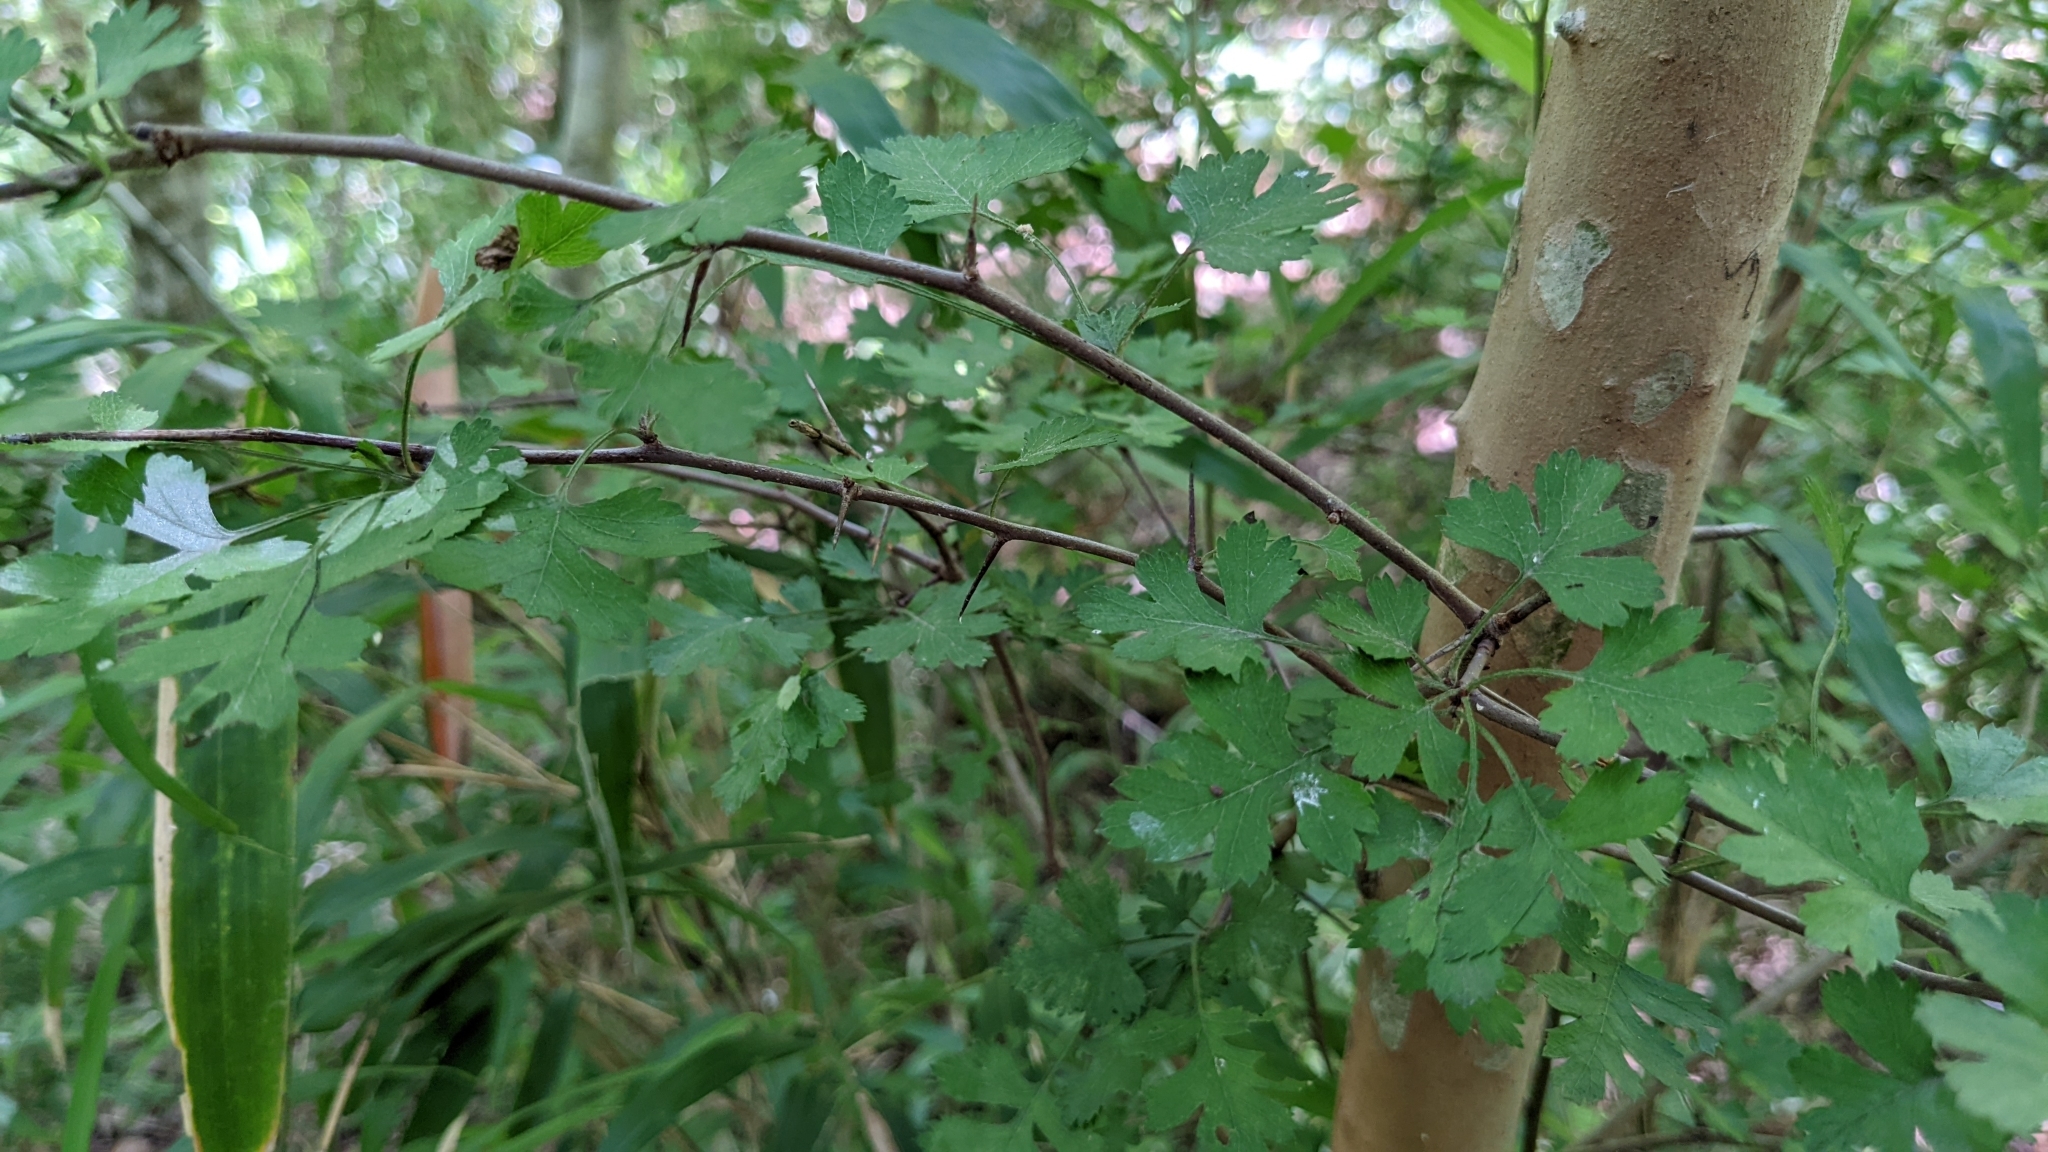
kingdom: Plantae
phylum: Tracheophyta
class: Magnoliopsida
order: Rosales
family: Rosaceae
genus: Crataegus
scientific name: Crataegus marshallii
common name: Parsley-hawthorn
